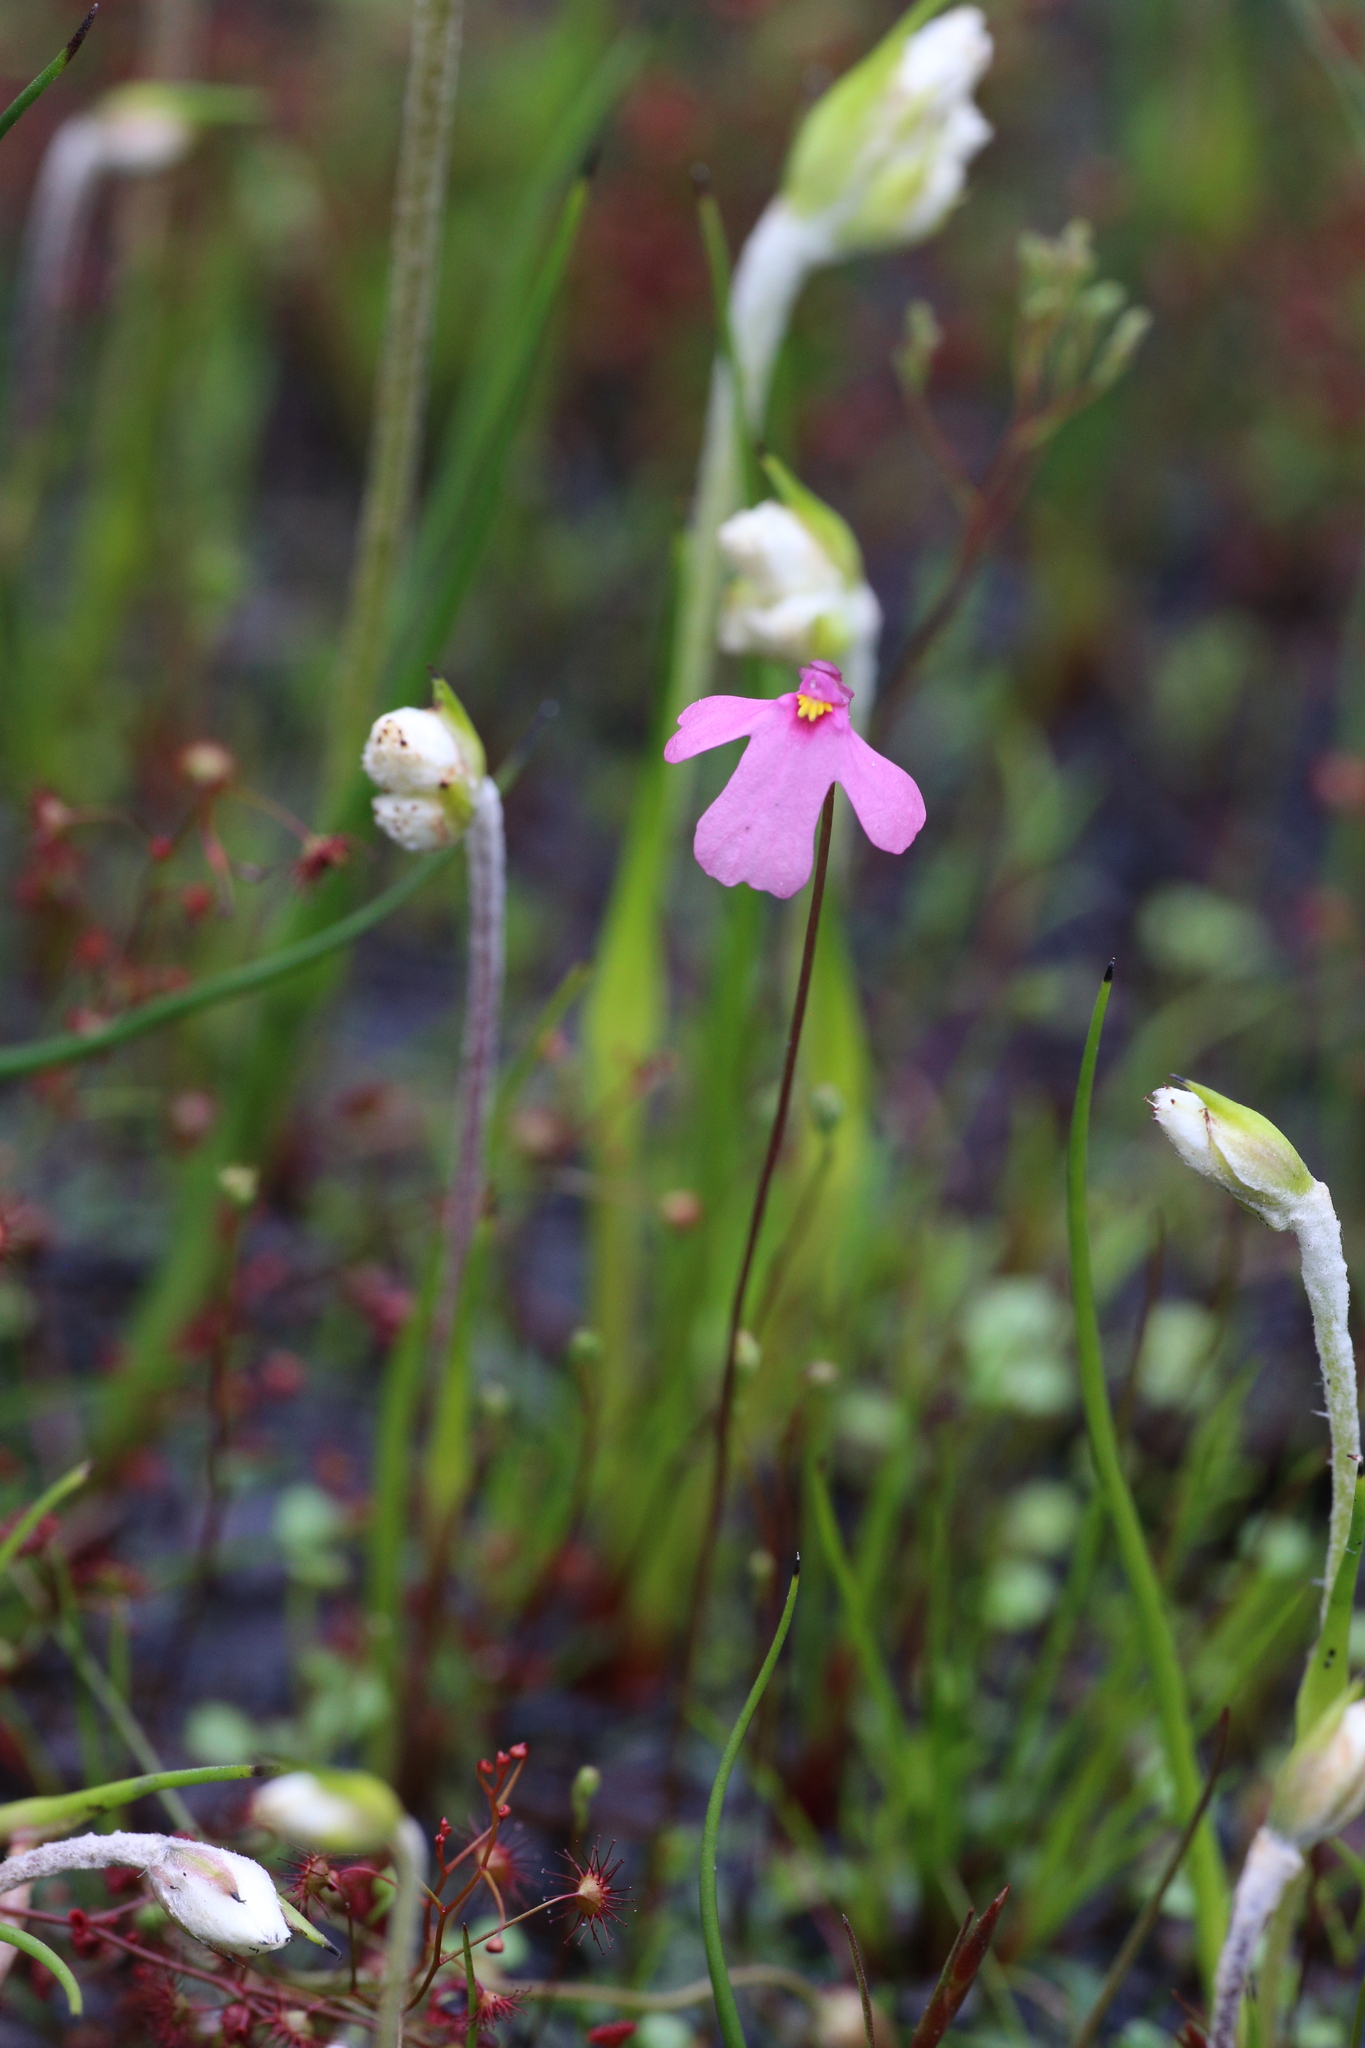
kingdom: Plantae
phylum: Tracheophyta
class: Magnoliopsida
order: Lamiales
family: Lentibulariaceae
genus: Utricularia
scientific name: Utricularia multifida
